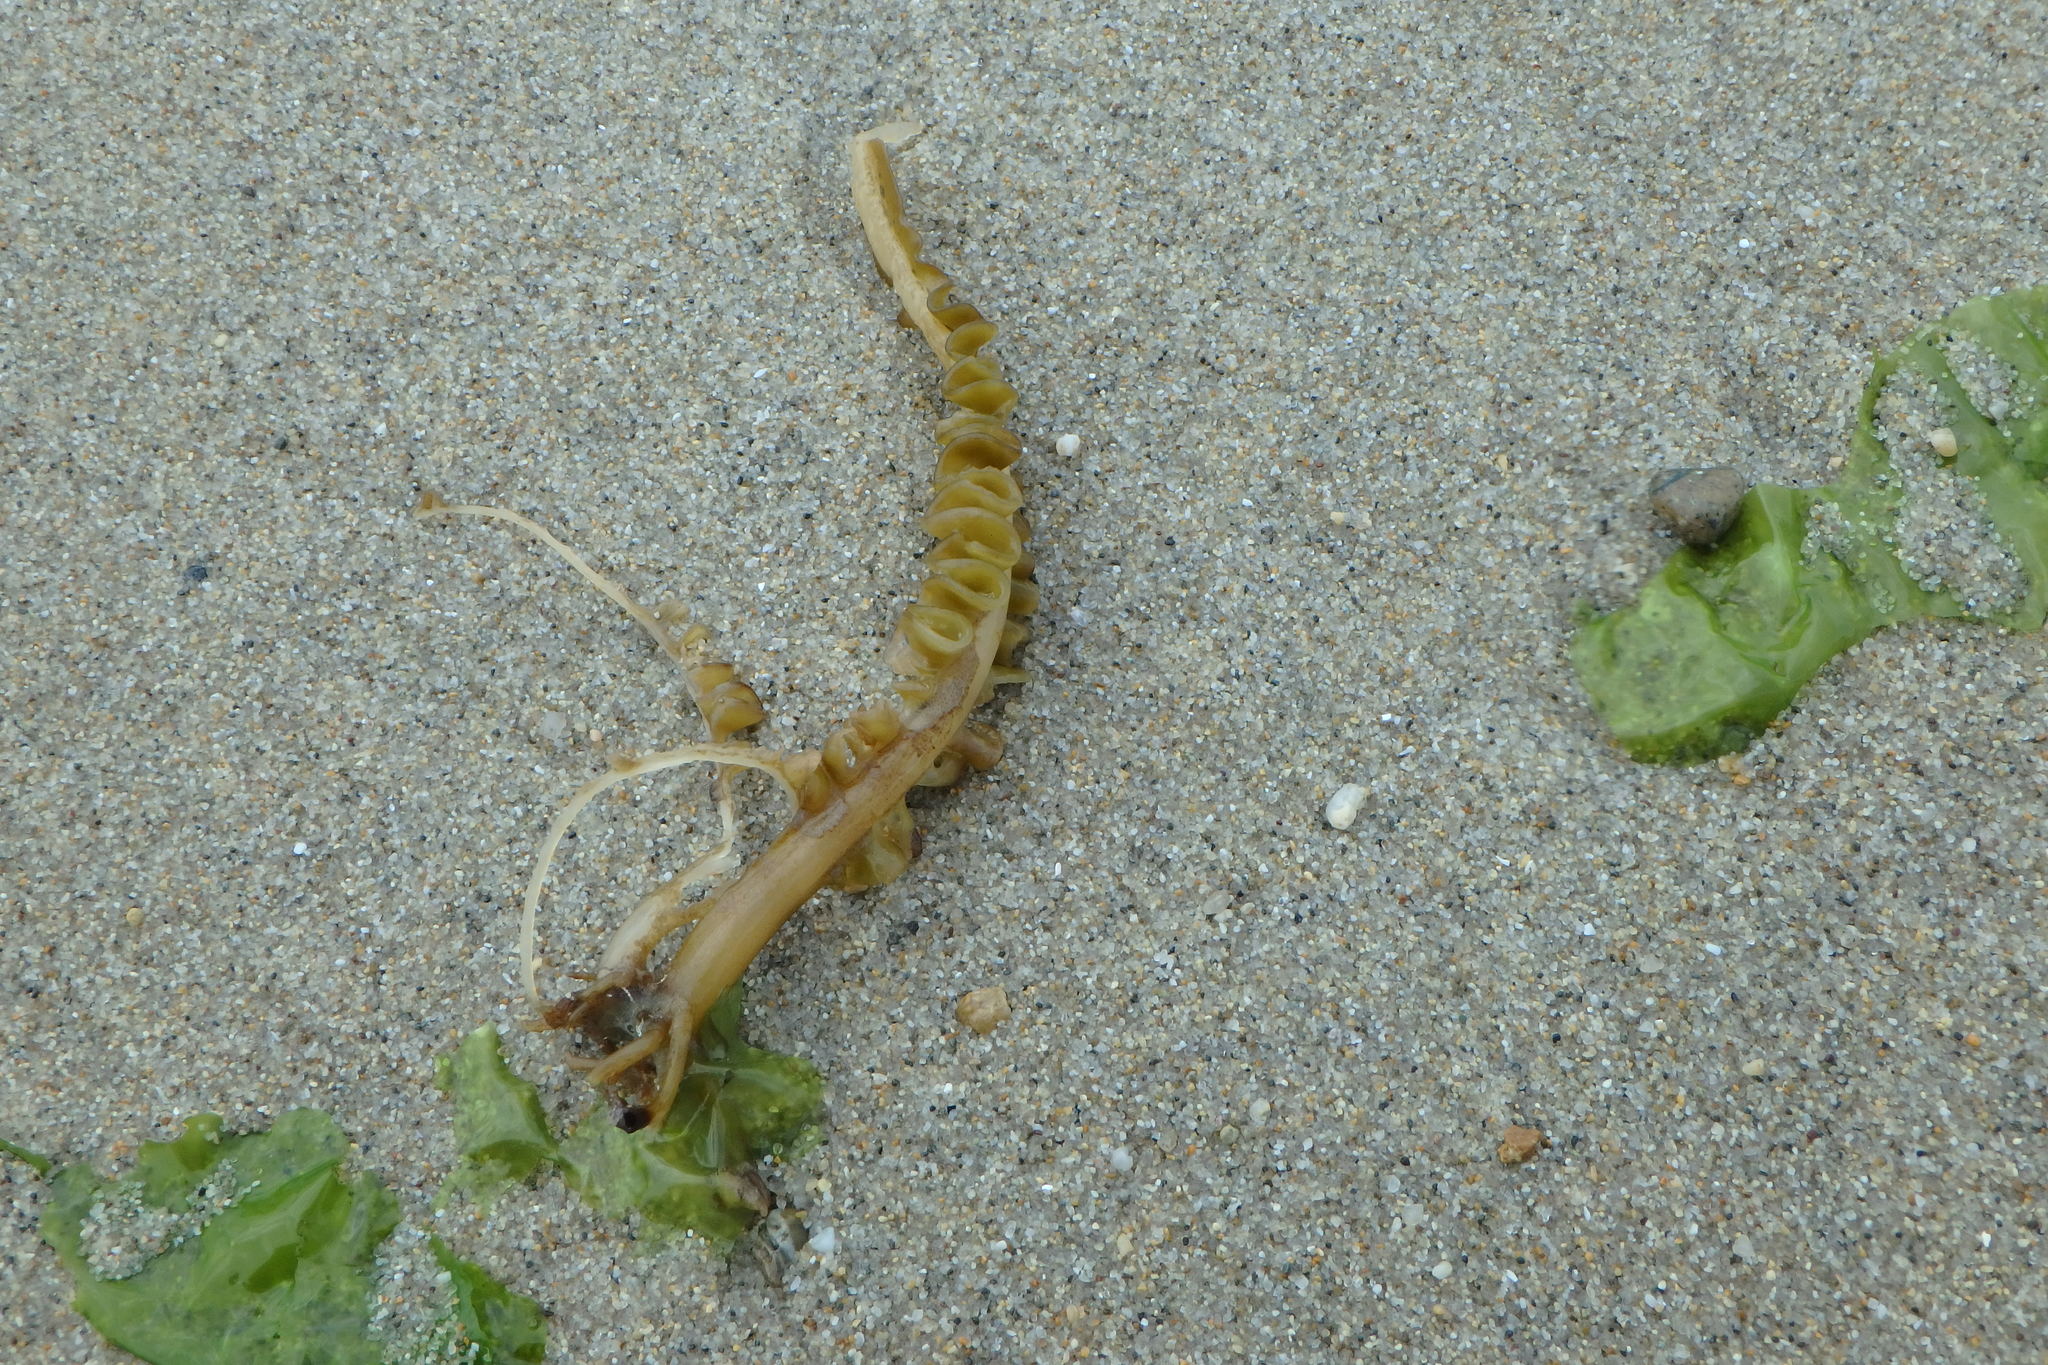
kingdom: Chromista
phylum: Ochrophyta
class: Phaeophyceae
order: Laminariales
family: Alariaceae
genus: Undaria
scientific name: Undaria pinnatifida
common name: Asian kelp
